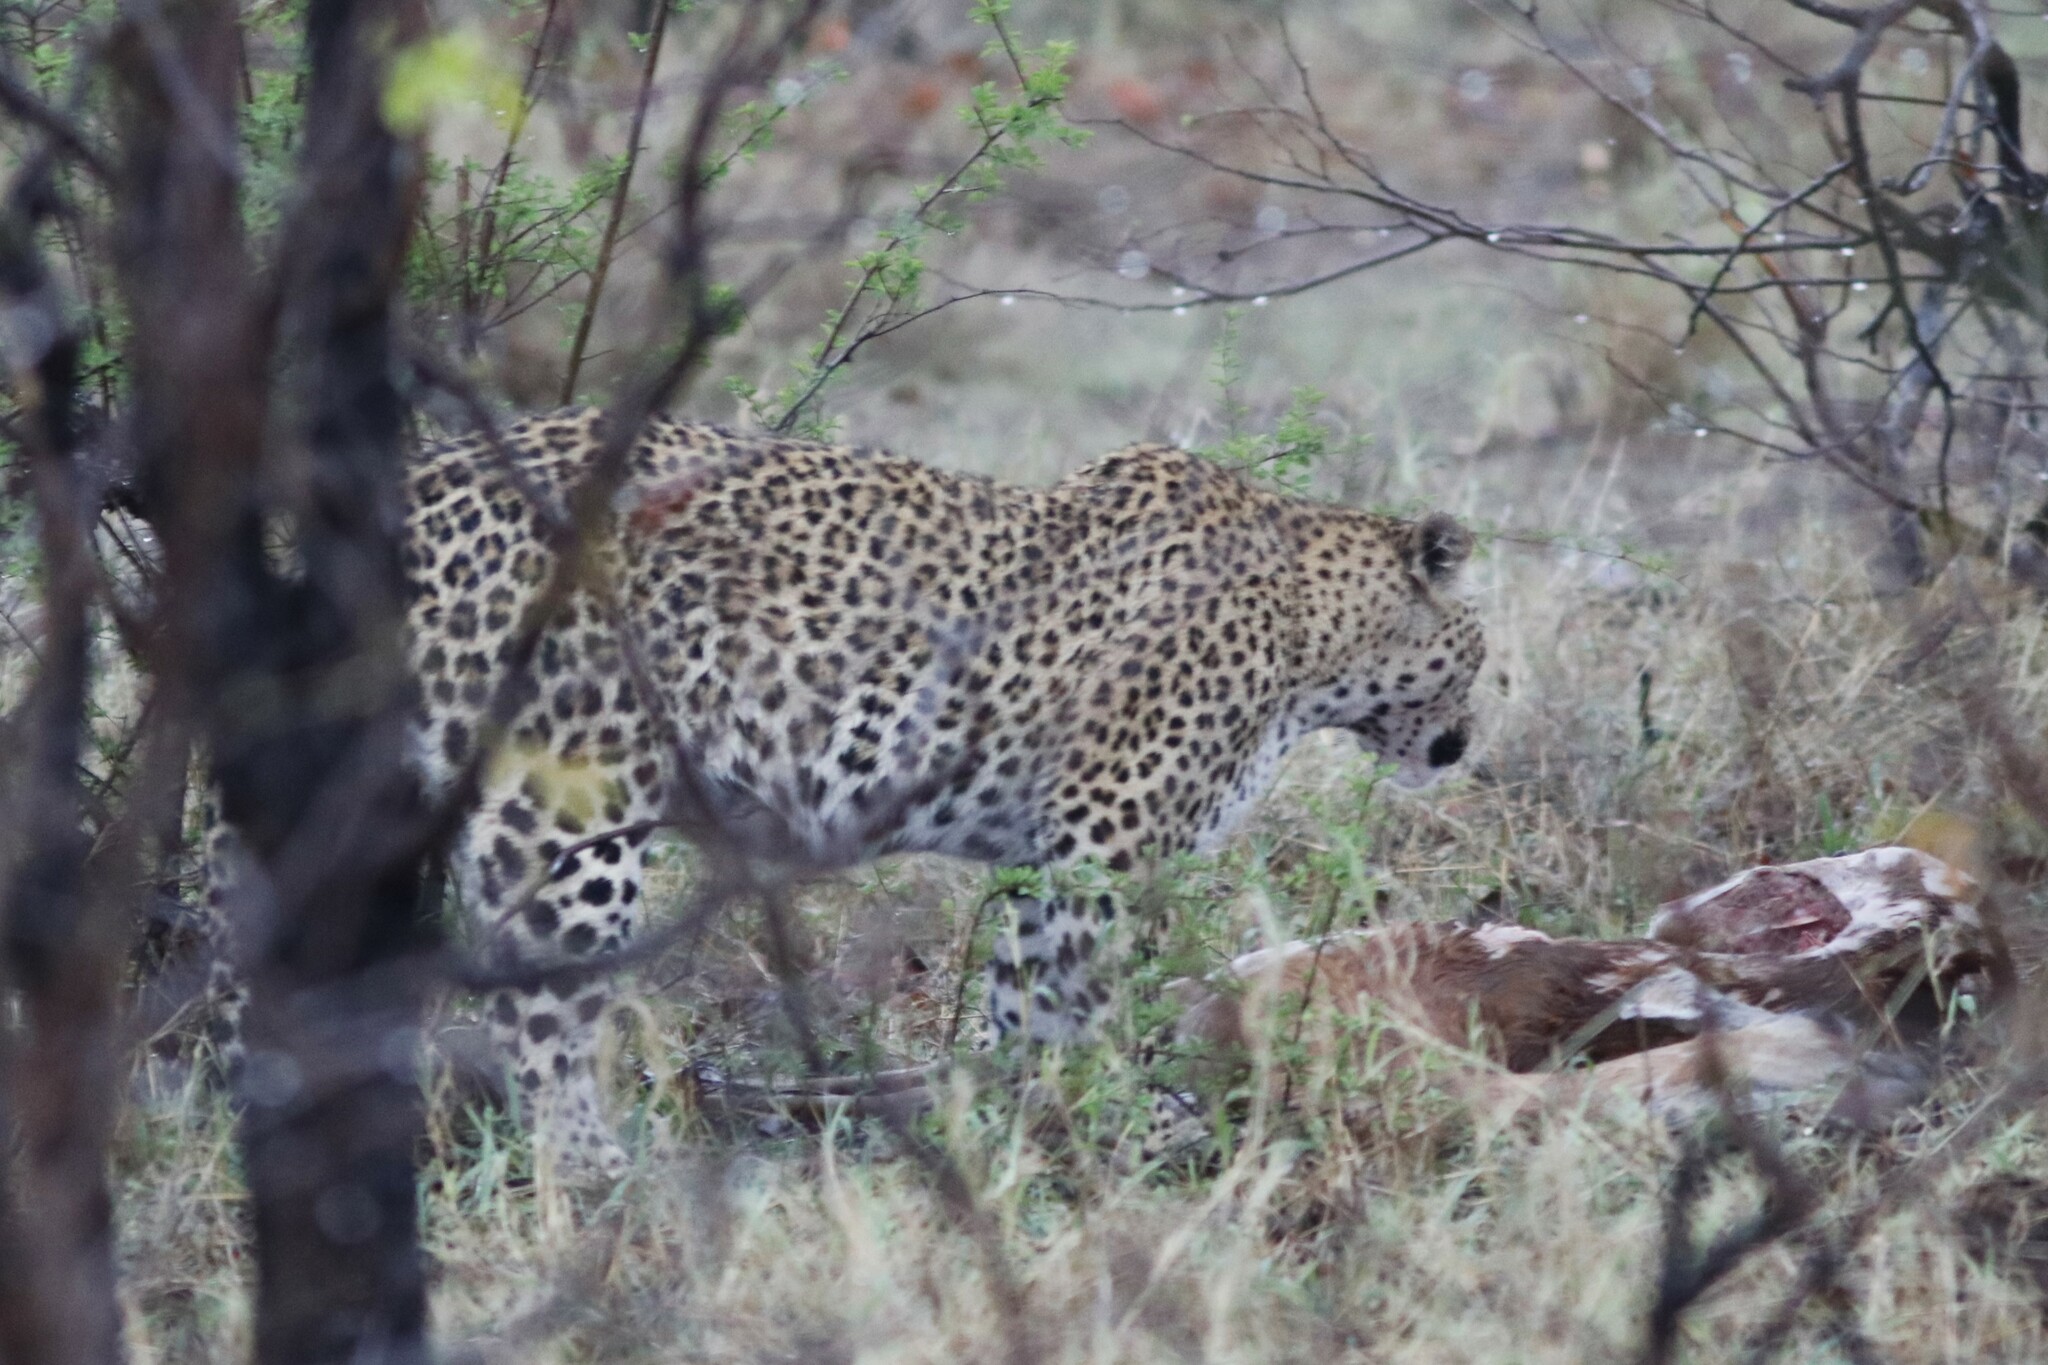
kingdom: Animalia
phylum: Chordata
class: Mammalia
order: Carnivora
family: Felidae
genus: Panthera
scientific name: Panthera pardus
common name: Leopard
